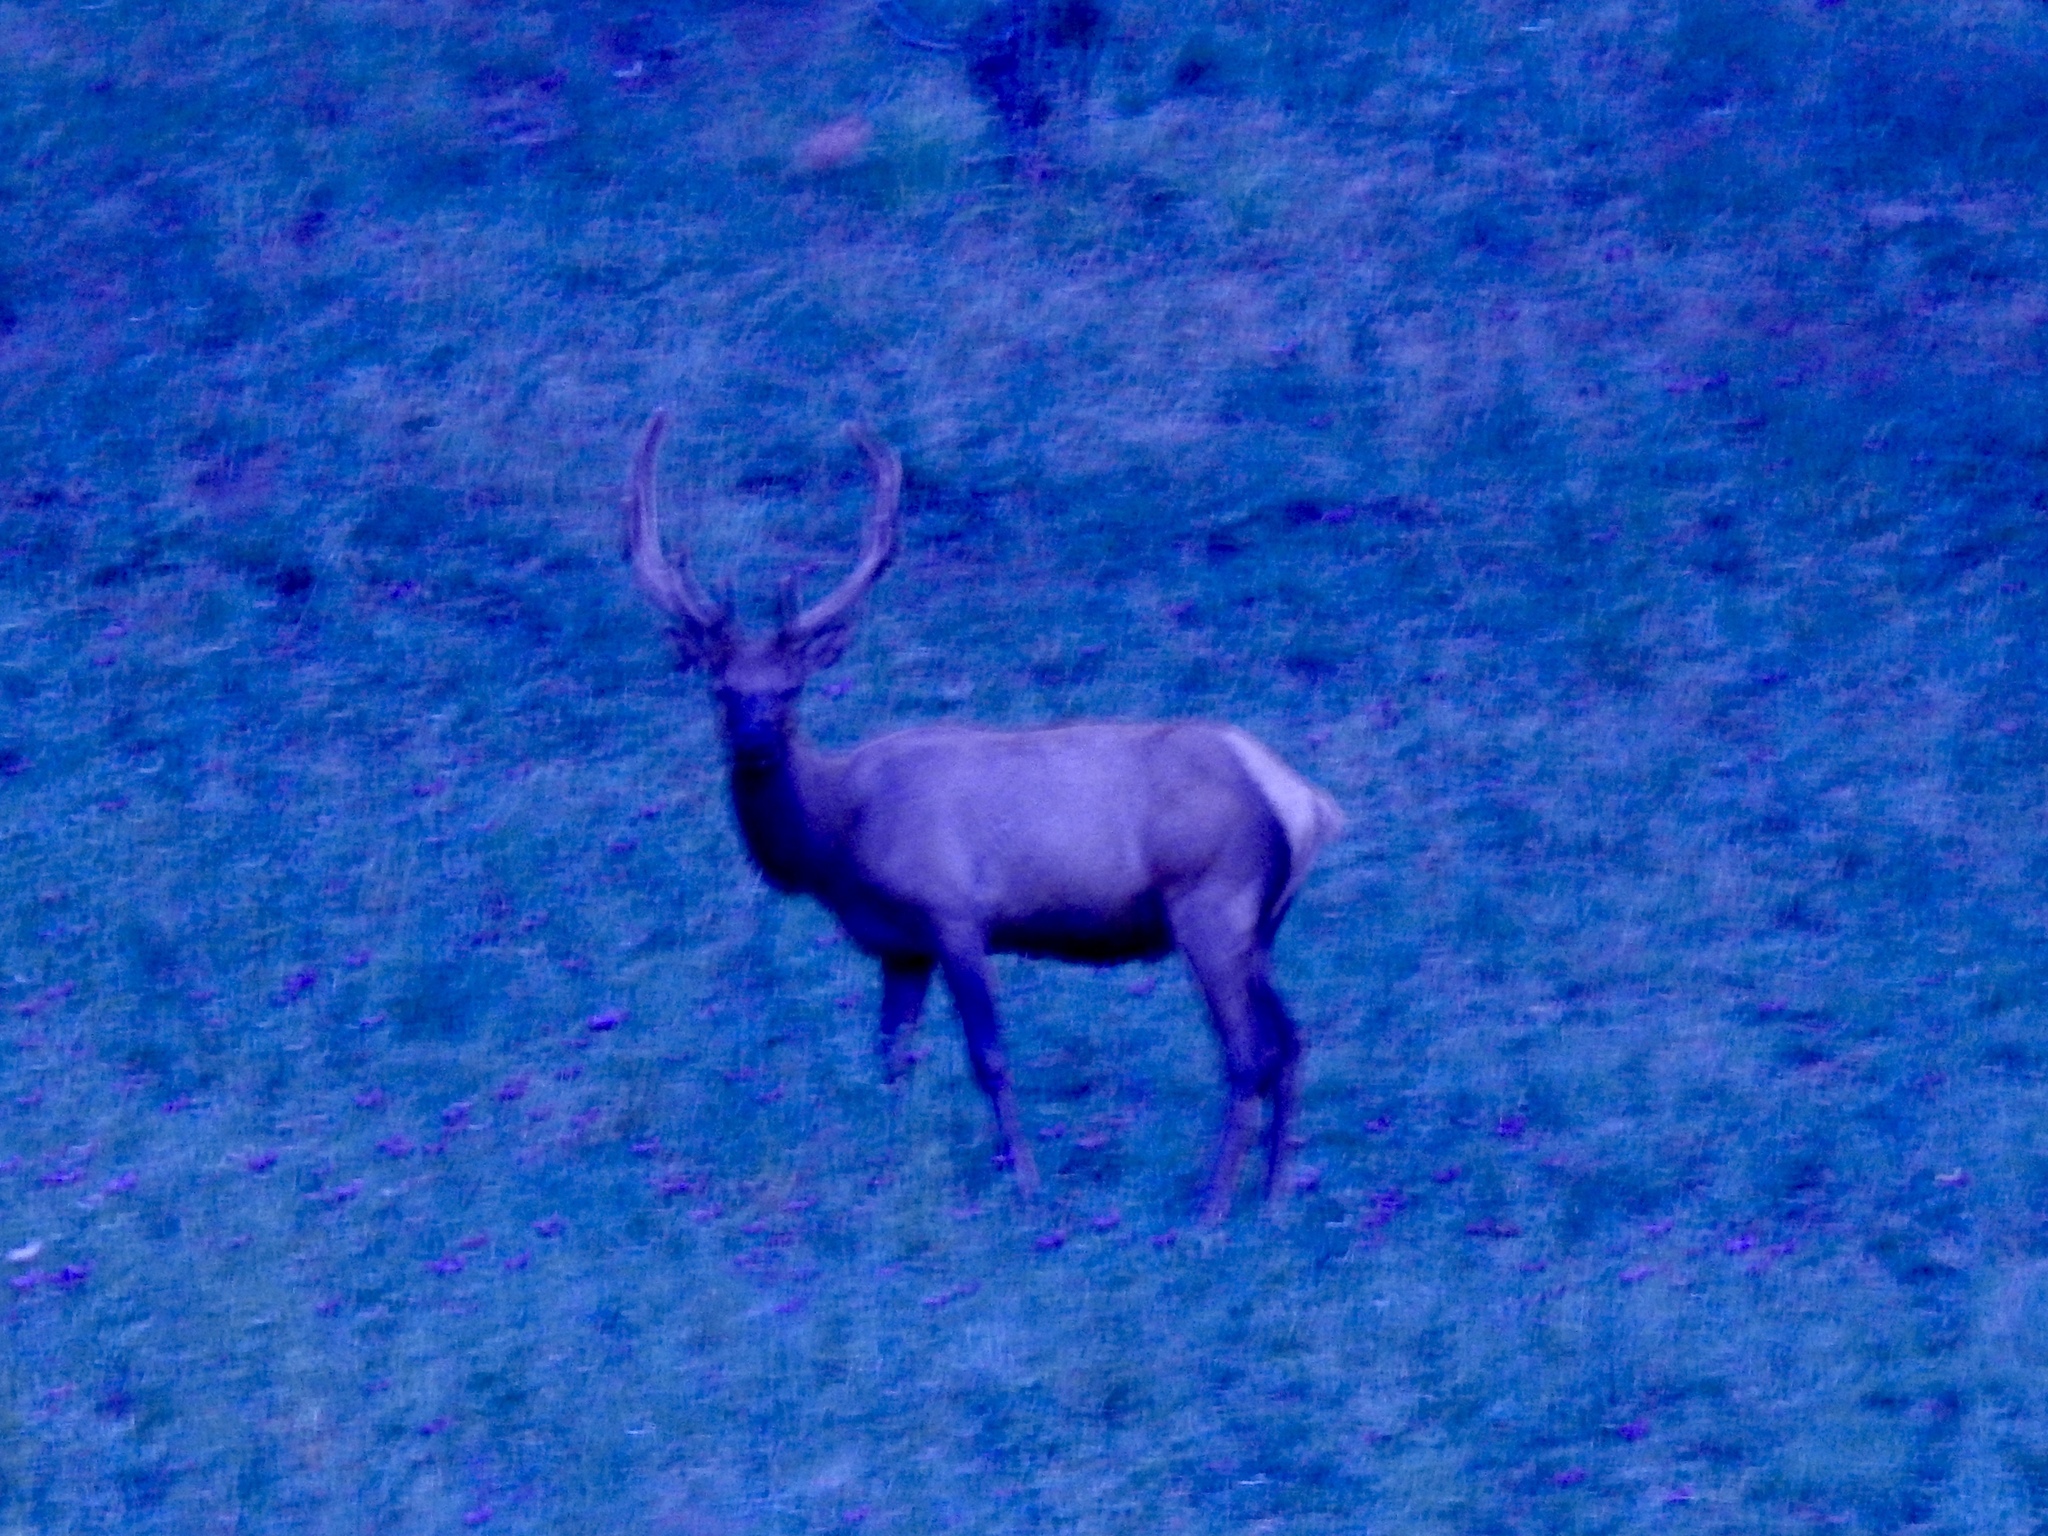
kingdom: Animalia
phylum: Chordata
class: Mammalia
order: Artiodactyla
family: Cervidae
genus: Cervus
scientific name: Cervus elaphus
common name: Red deer
